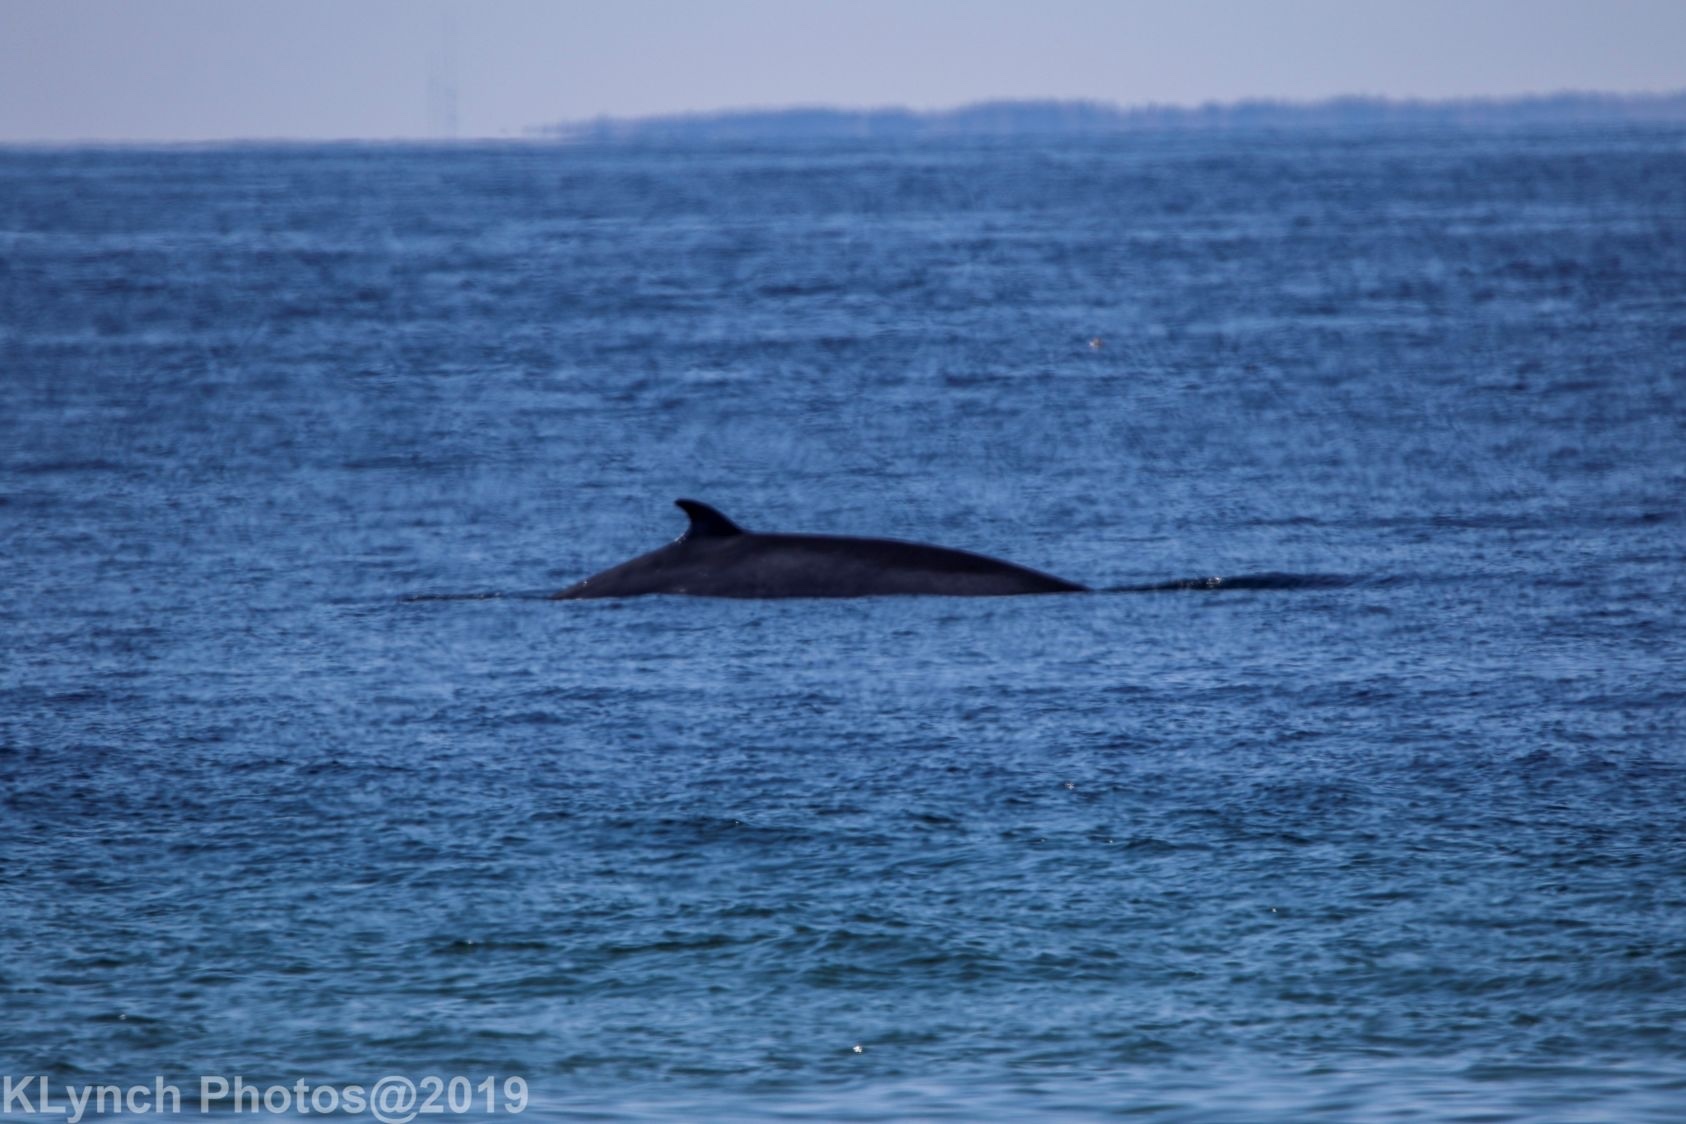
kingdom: Animalia
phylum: Chordata
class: Mammalia
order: Cetacea
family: Balaenopteridae
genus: Balaenoptera
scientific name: Balaenoptera acutorostrata
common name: Common minke whale
